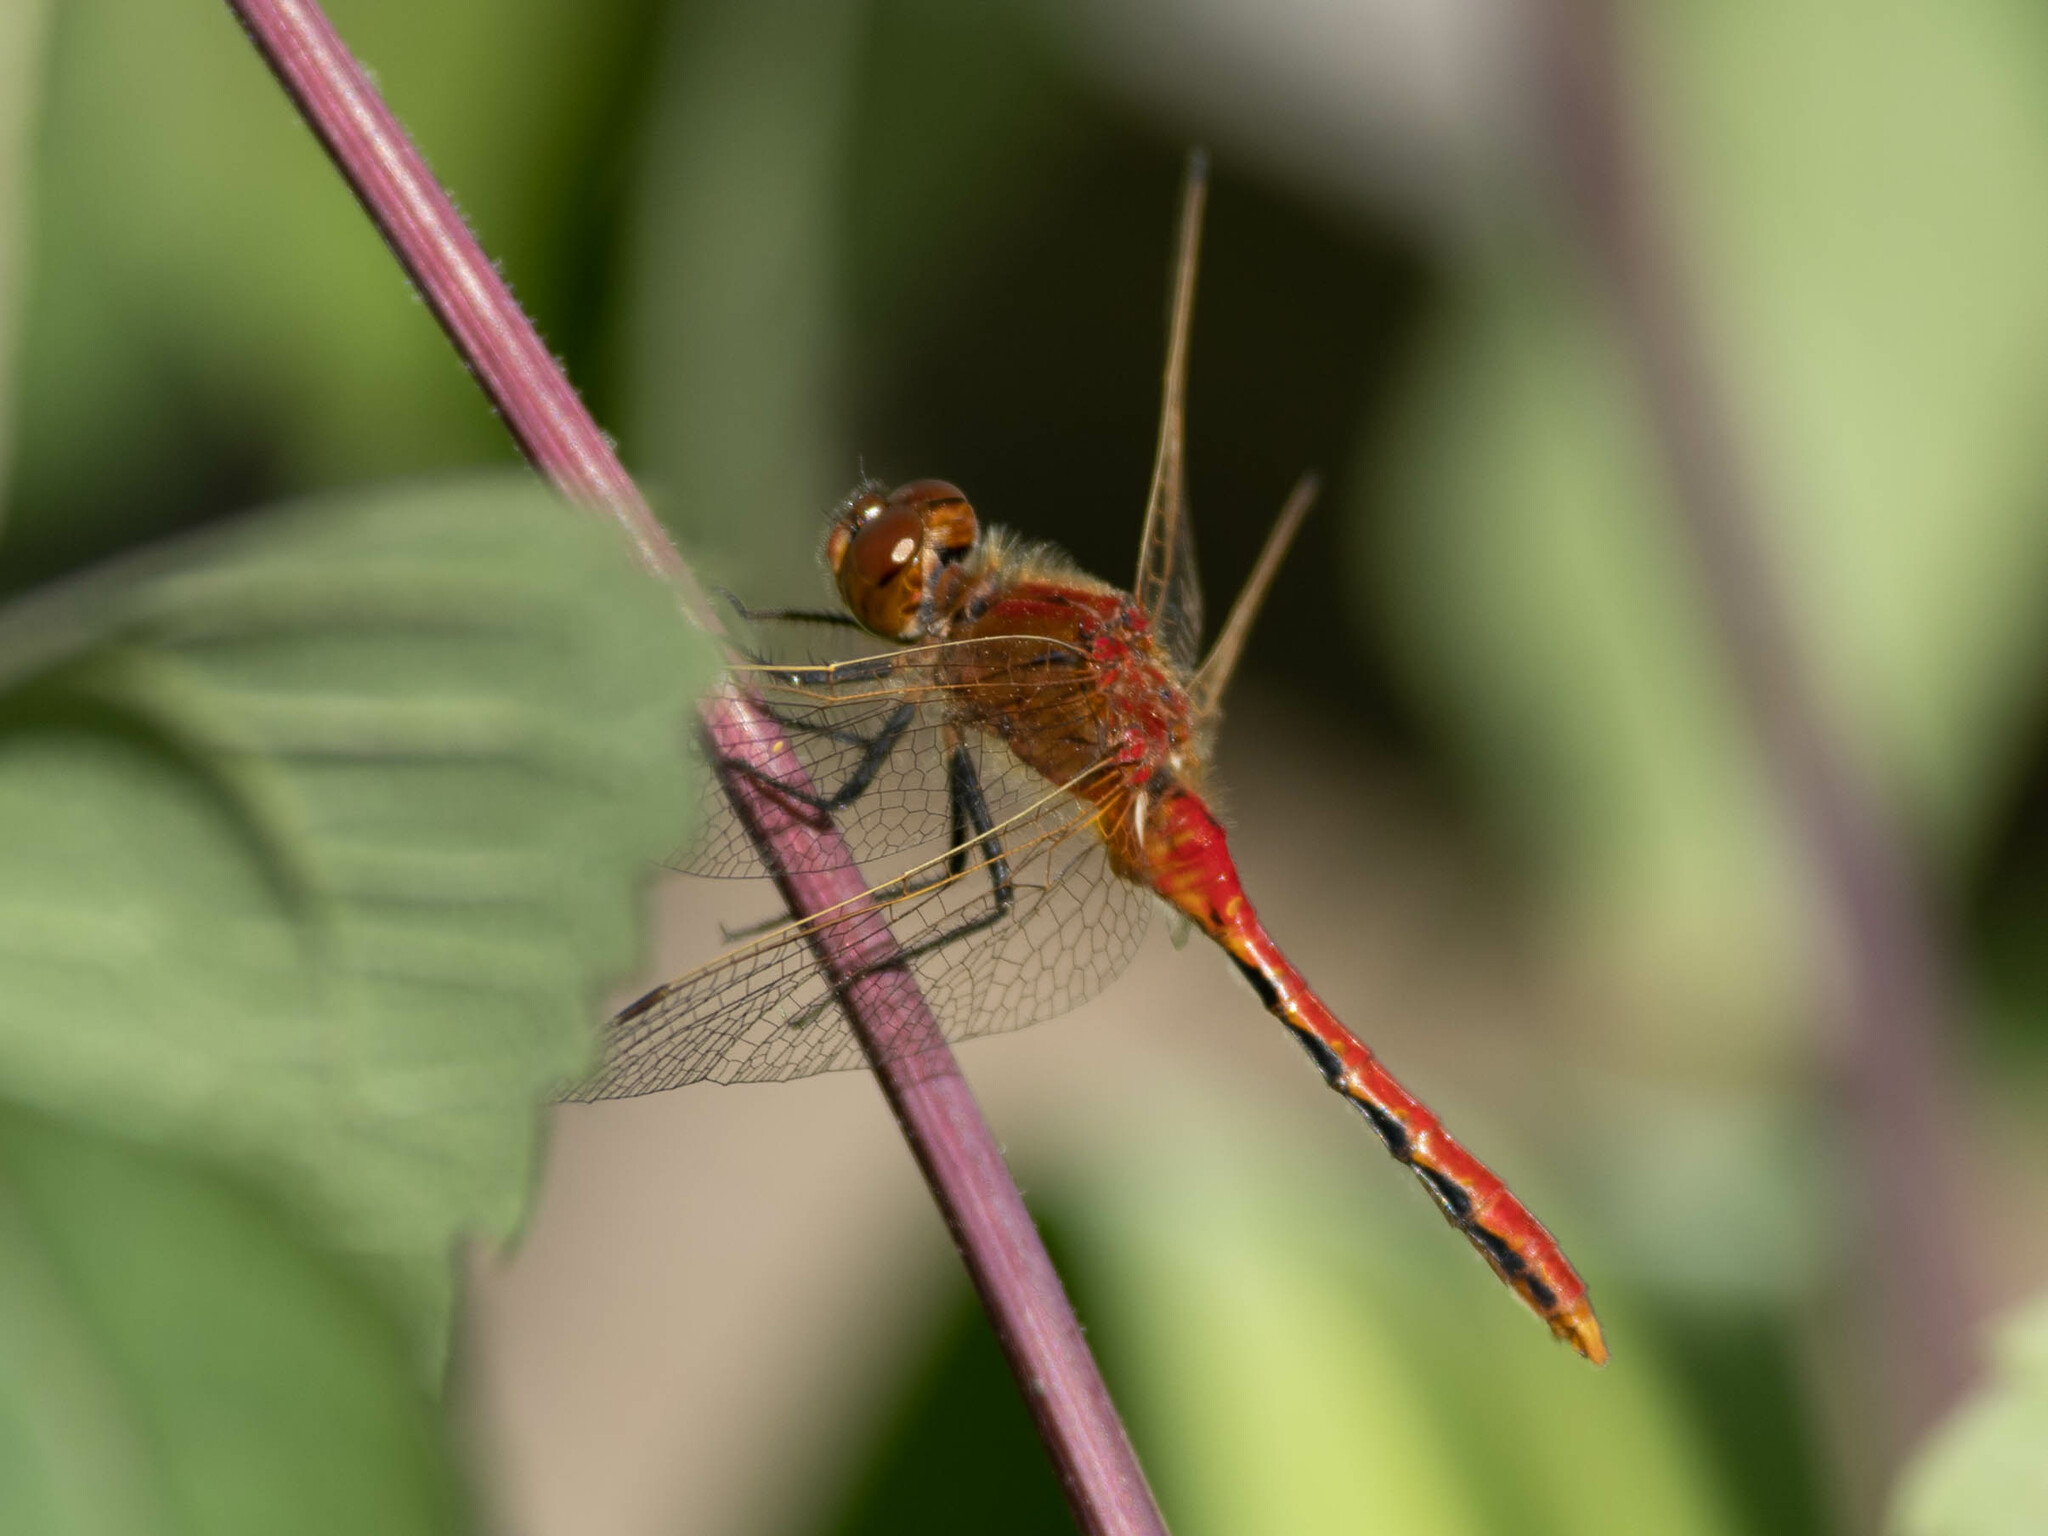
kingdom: Animalia
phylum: Arthropoda
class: Insecta
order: Odonata
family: Libellulidae
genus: Sympetrum
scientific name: Sympetrum internum
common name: Cherry-faced meadowhawk
